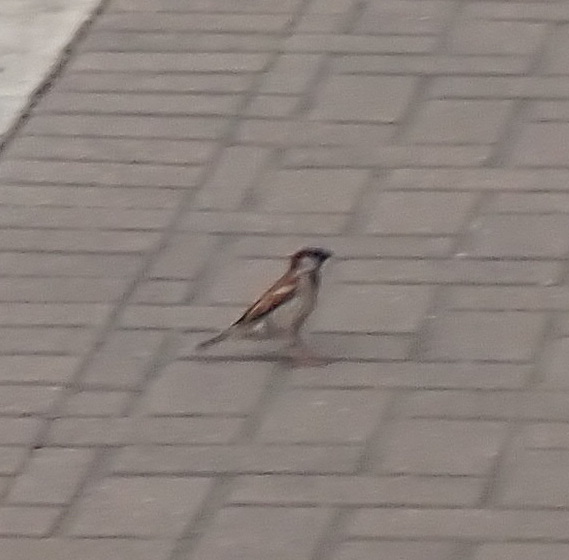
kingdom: Animalia
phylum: Chordata
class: Aves
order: Passeriformes
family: Passeridae
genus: Passer
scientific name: Passer domesticus
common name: House sparrow
